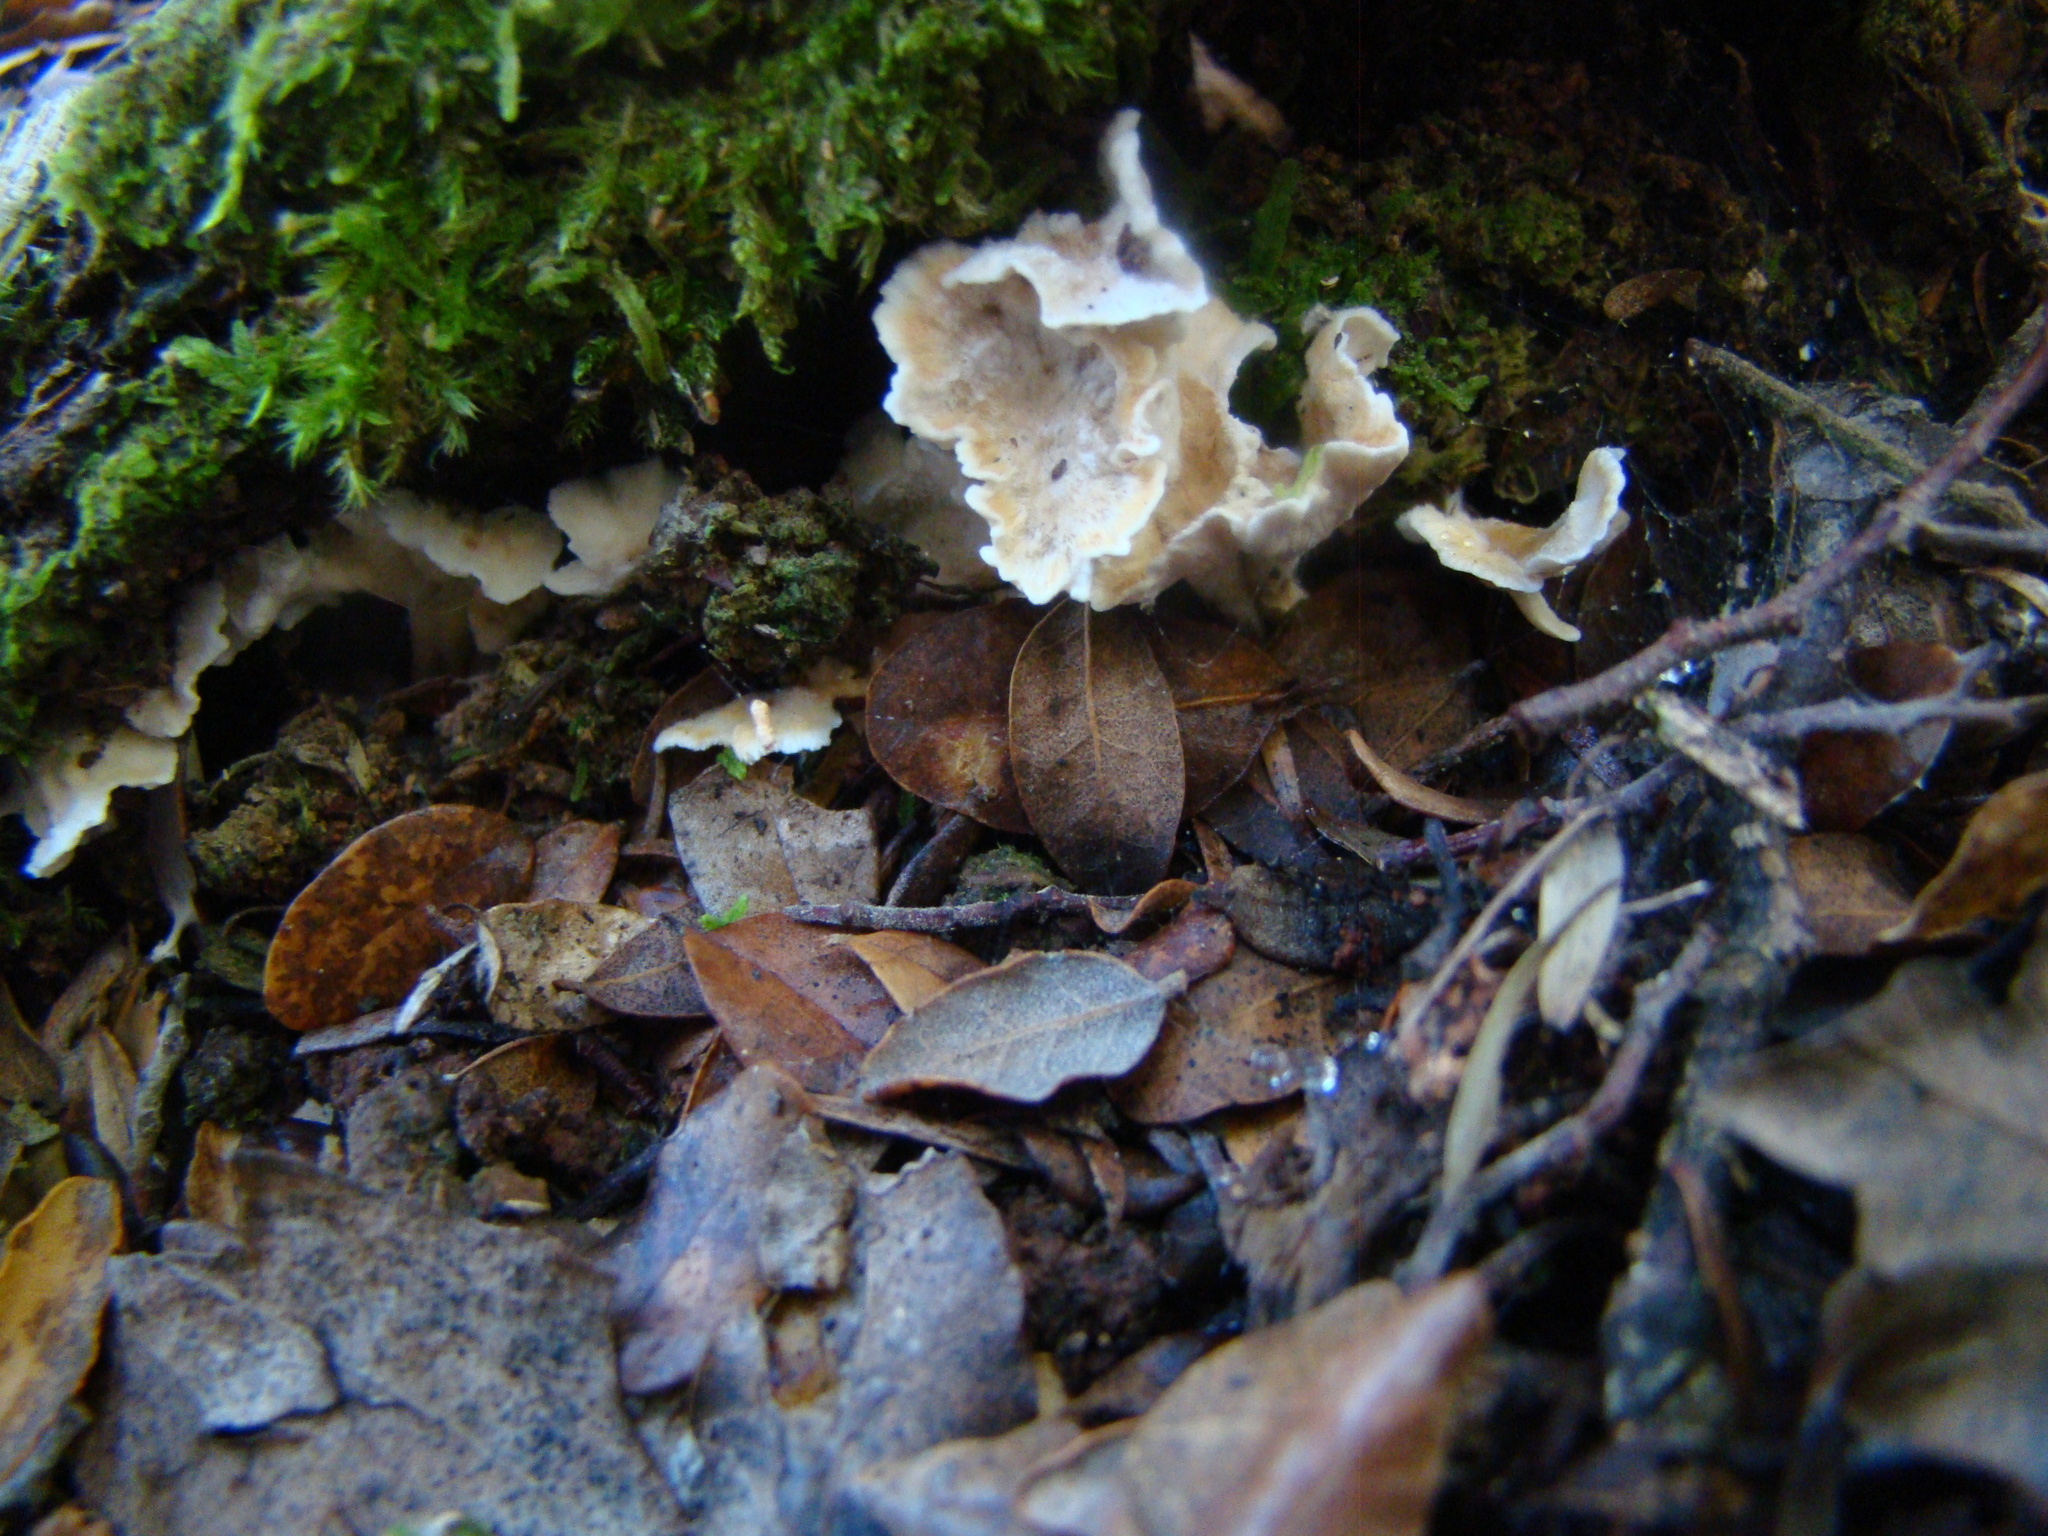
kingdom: Fungi
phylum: Basidiomycota
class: Agaricomycetes
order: Amylocorticiales
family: Amylocorticiaceae
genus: Podoserpula
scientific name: Podoserpula
